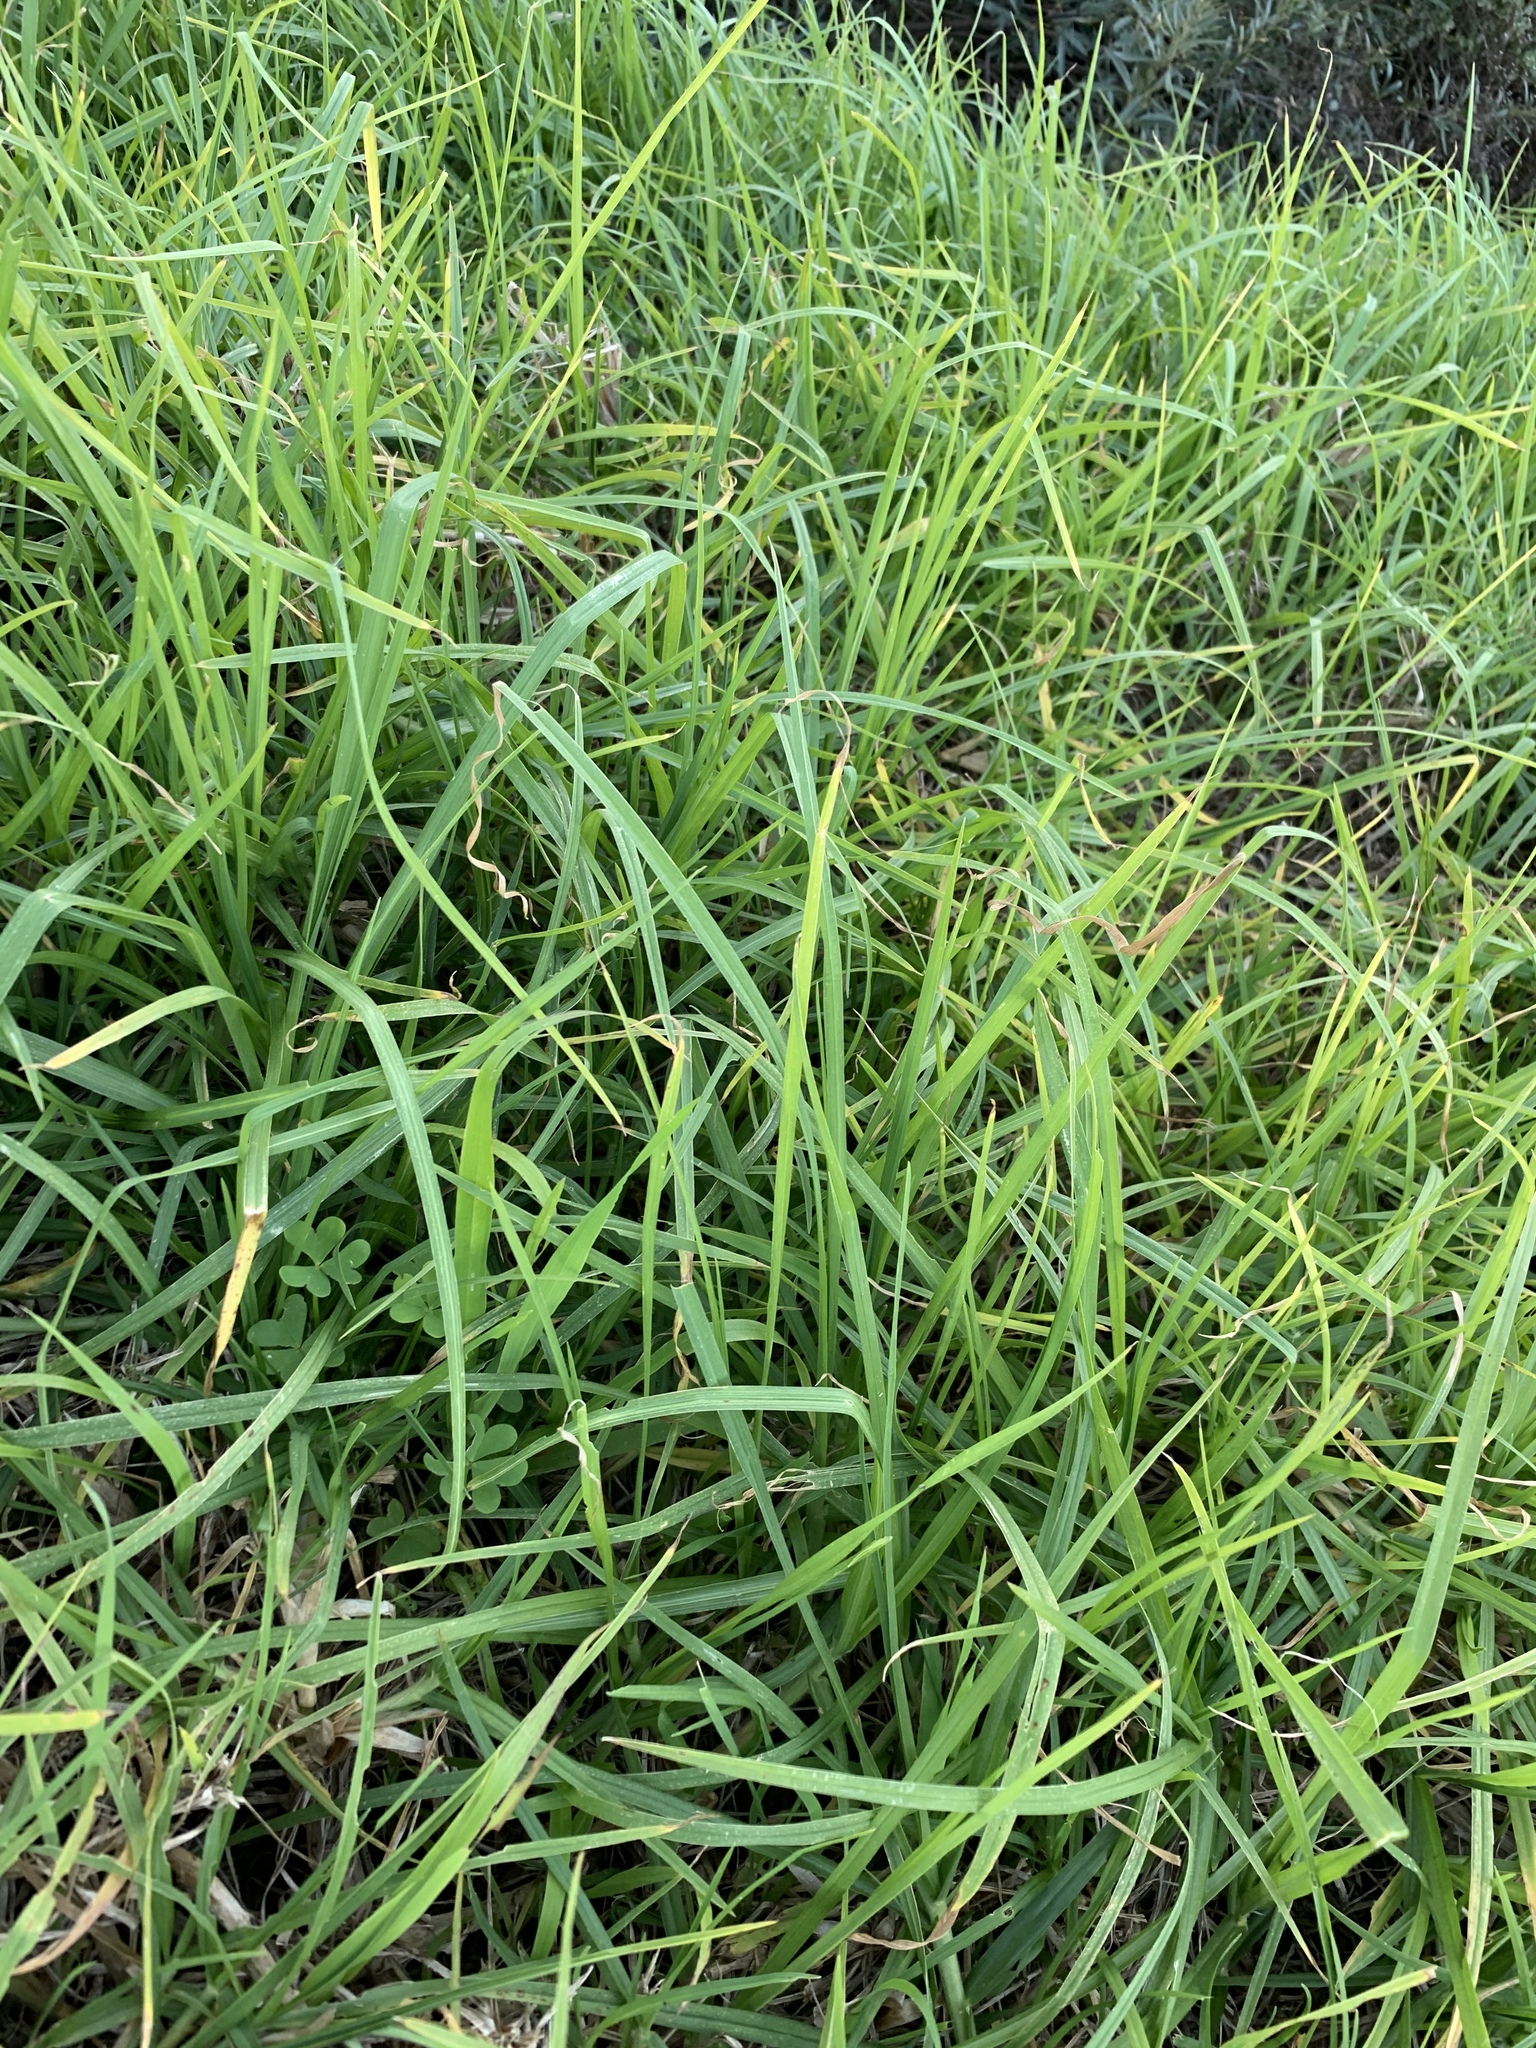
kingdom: Plantae
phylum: Tracheophyta
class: Liliopsida
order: Poales
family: Poaceae
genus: Cenchrus
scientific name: Cenchrus clandestinus
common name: Kikuyugrass
